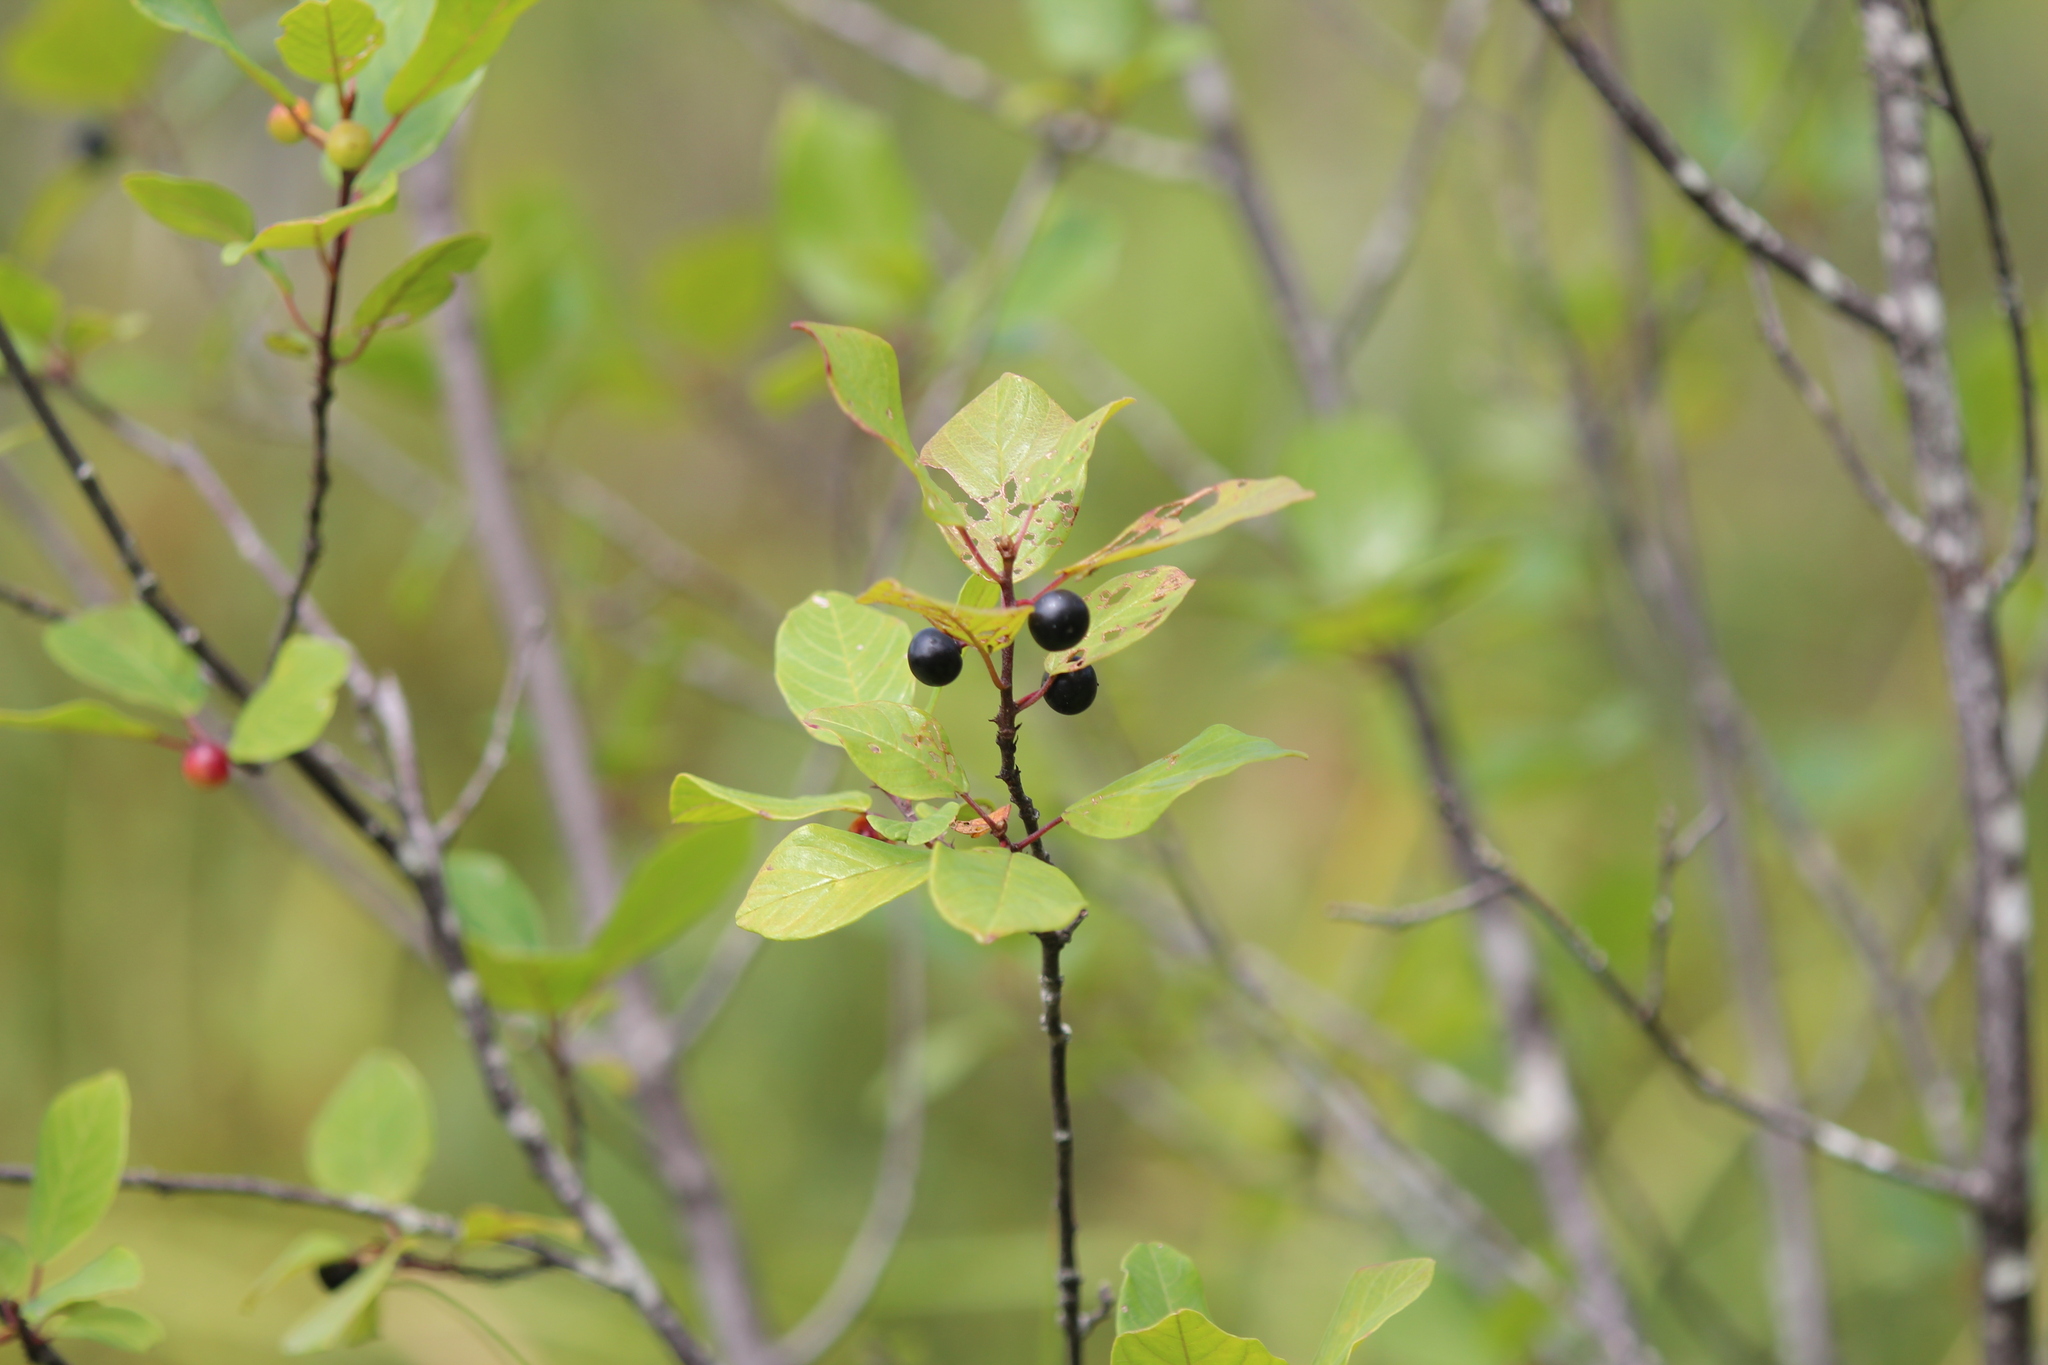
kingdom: Plantae
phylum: Tracheophyta
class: Magnoliopsida
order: Rosales
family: Rhamnaceae
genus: Frangula
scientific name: Frangula alnus
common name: Alder buckthorn
